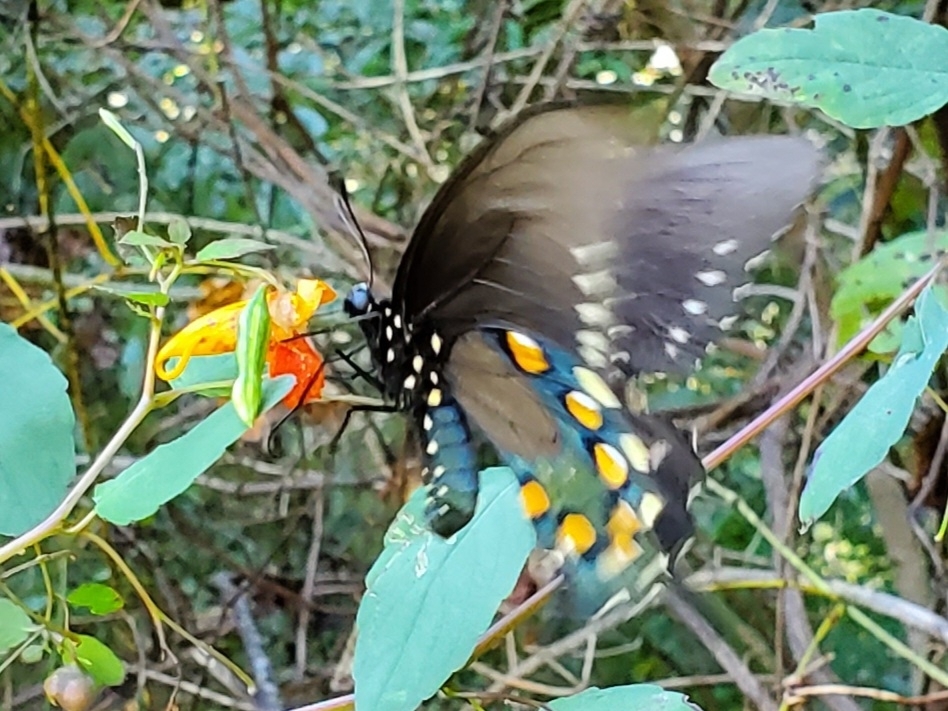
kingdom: Animalia
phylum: Arthropoda
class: Insecta
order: Lepidoptera
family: Papilionidae
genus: Battus
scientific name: Battus philenor
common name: Pipevine swallowtail
